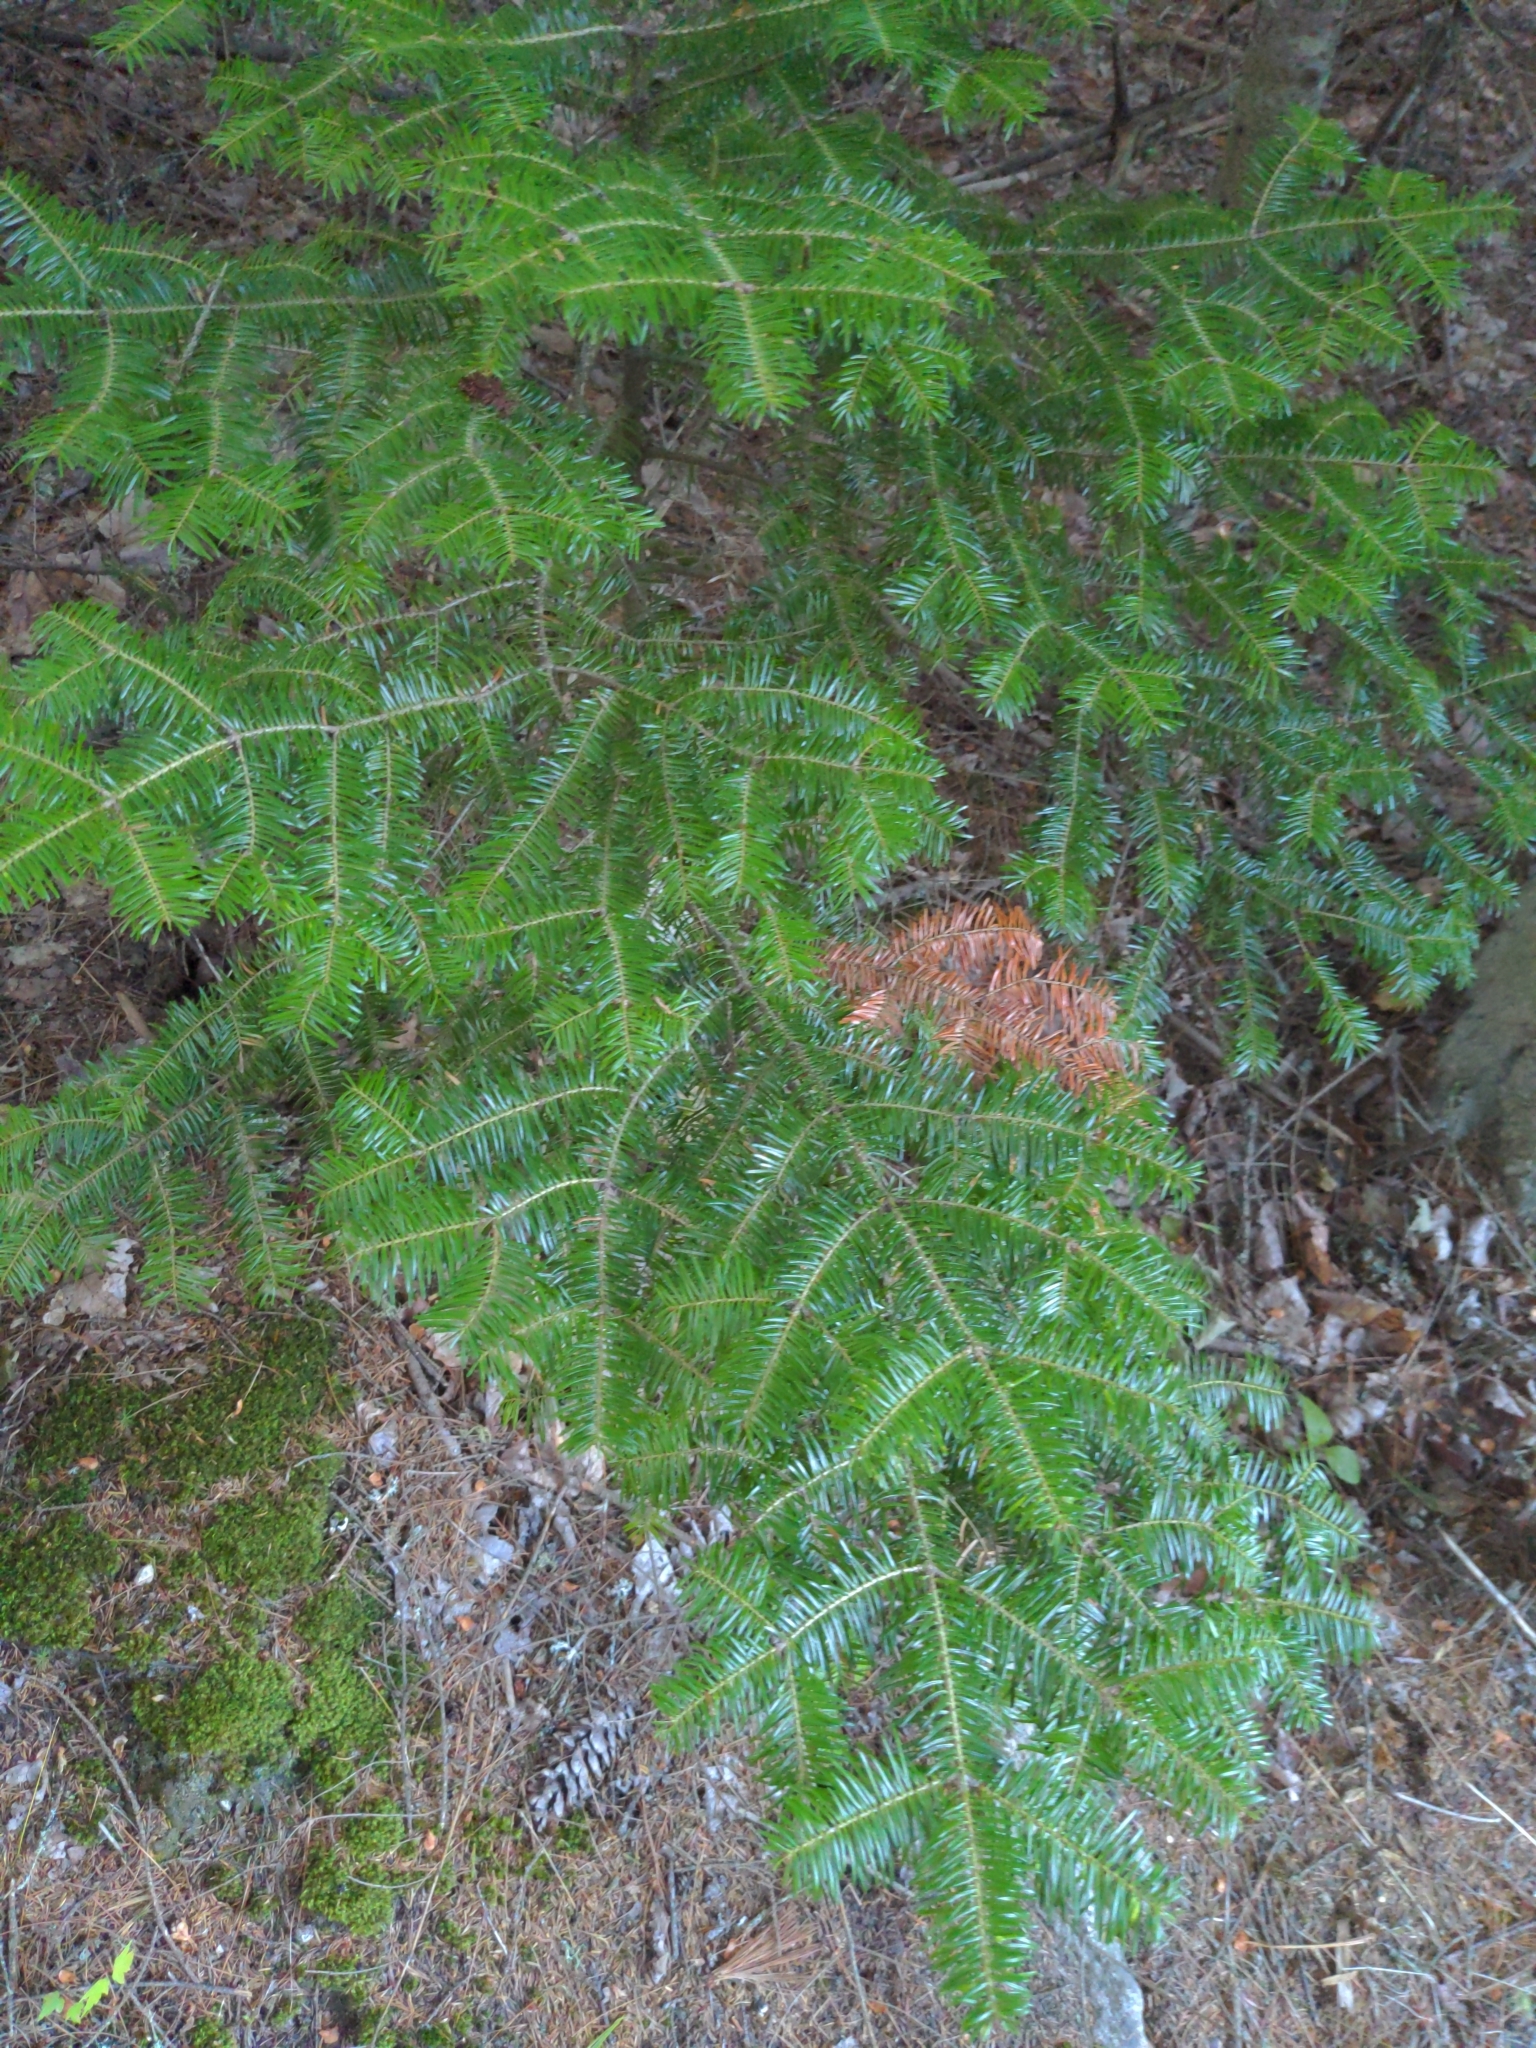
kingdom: Plantae
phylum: Tracheophyta
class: Pinopsida
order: Pinales
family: Pinaceae
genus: Abies
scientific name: Abies balsamea
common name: Balsam fir
